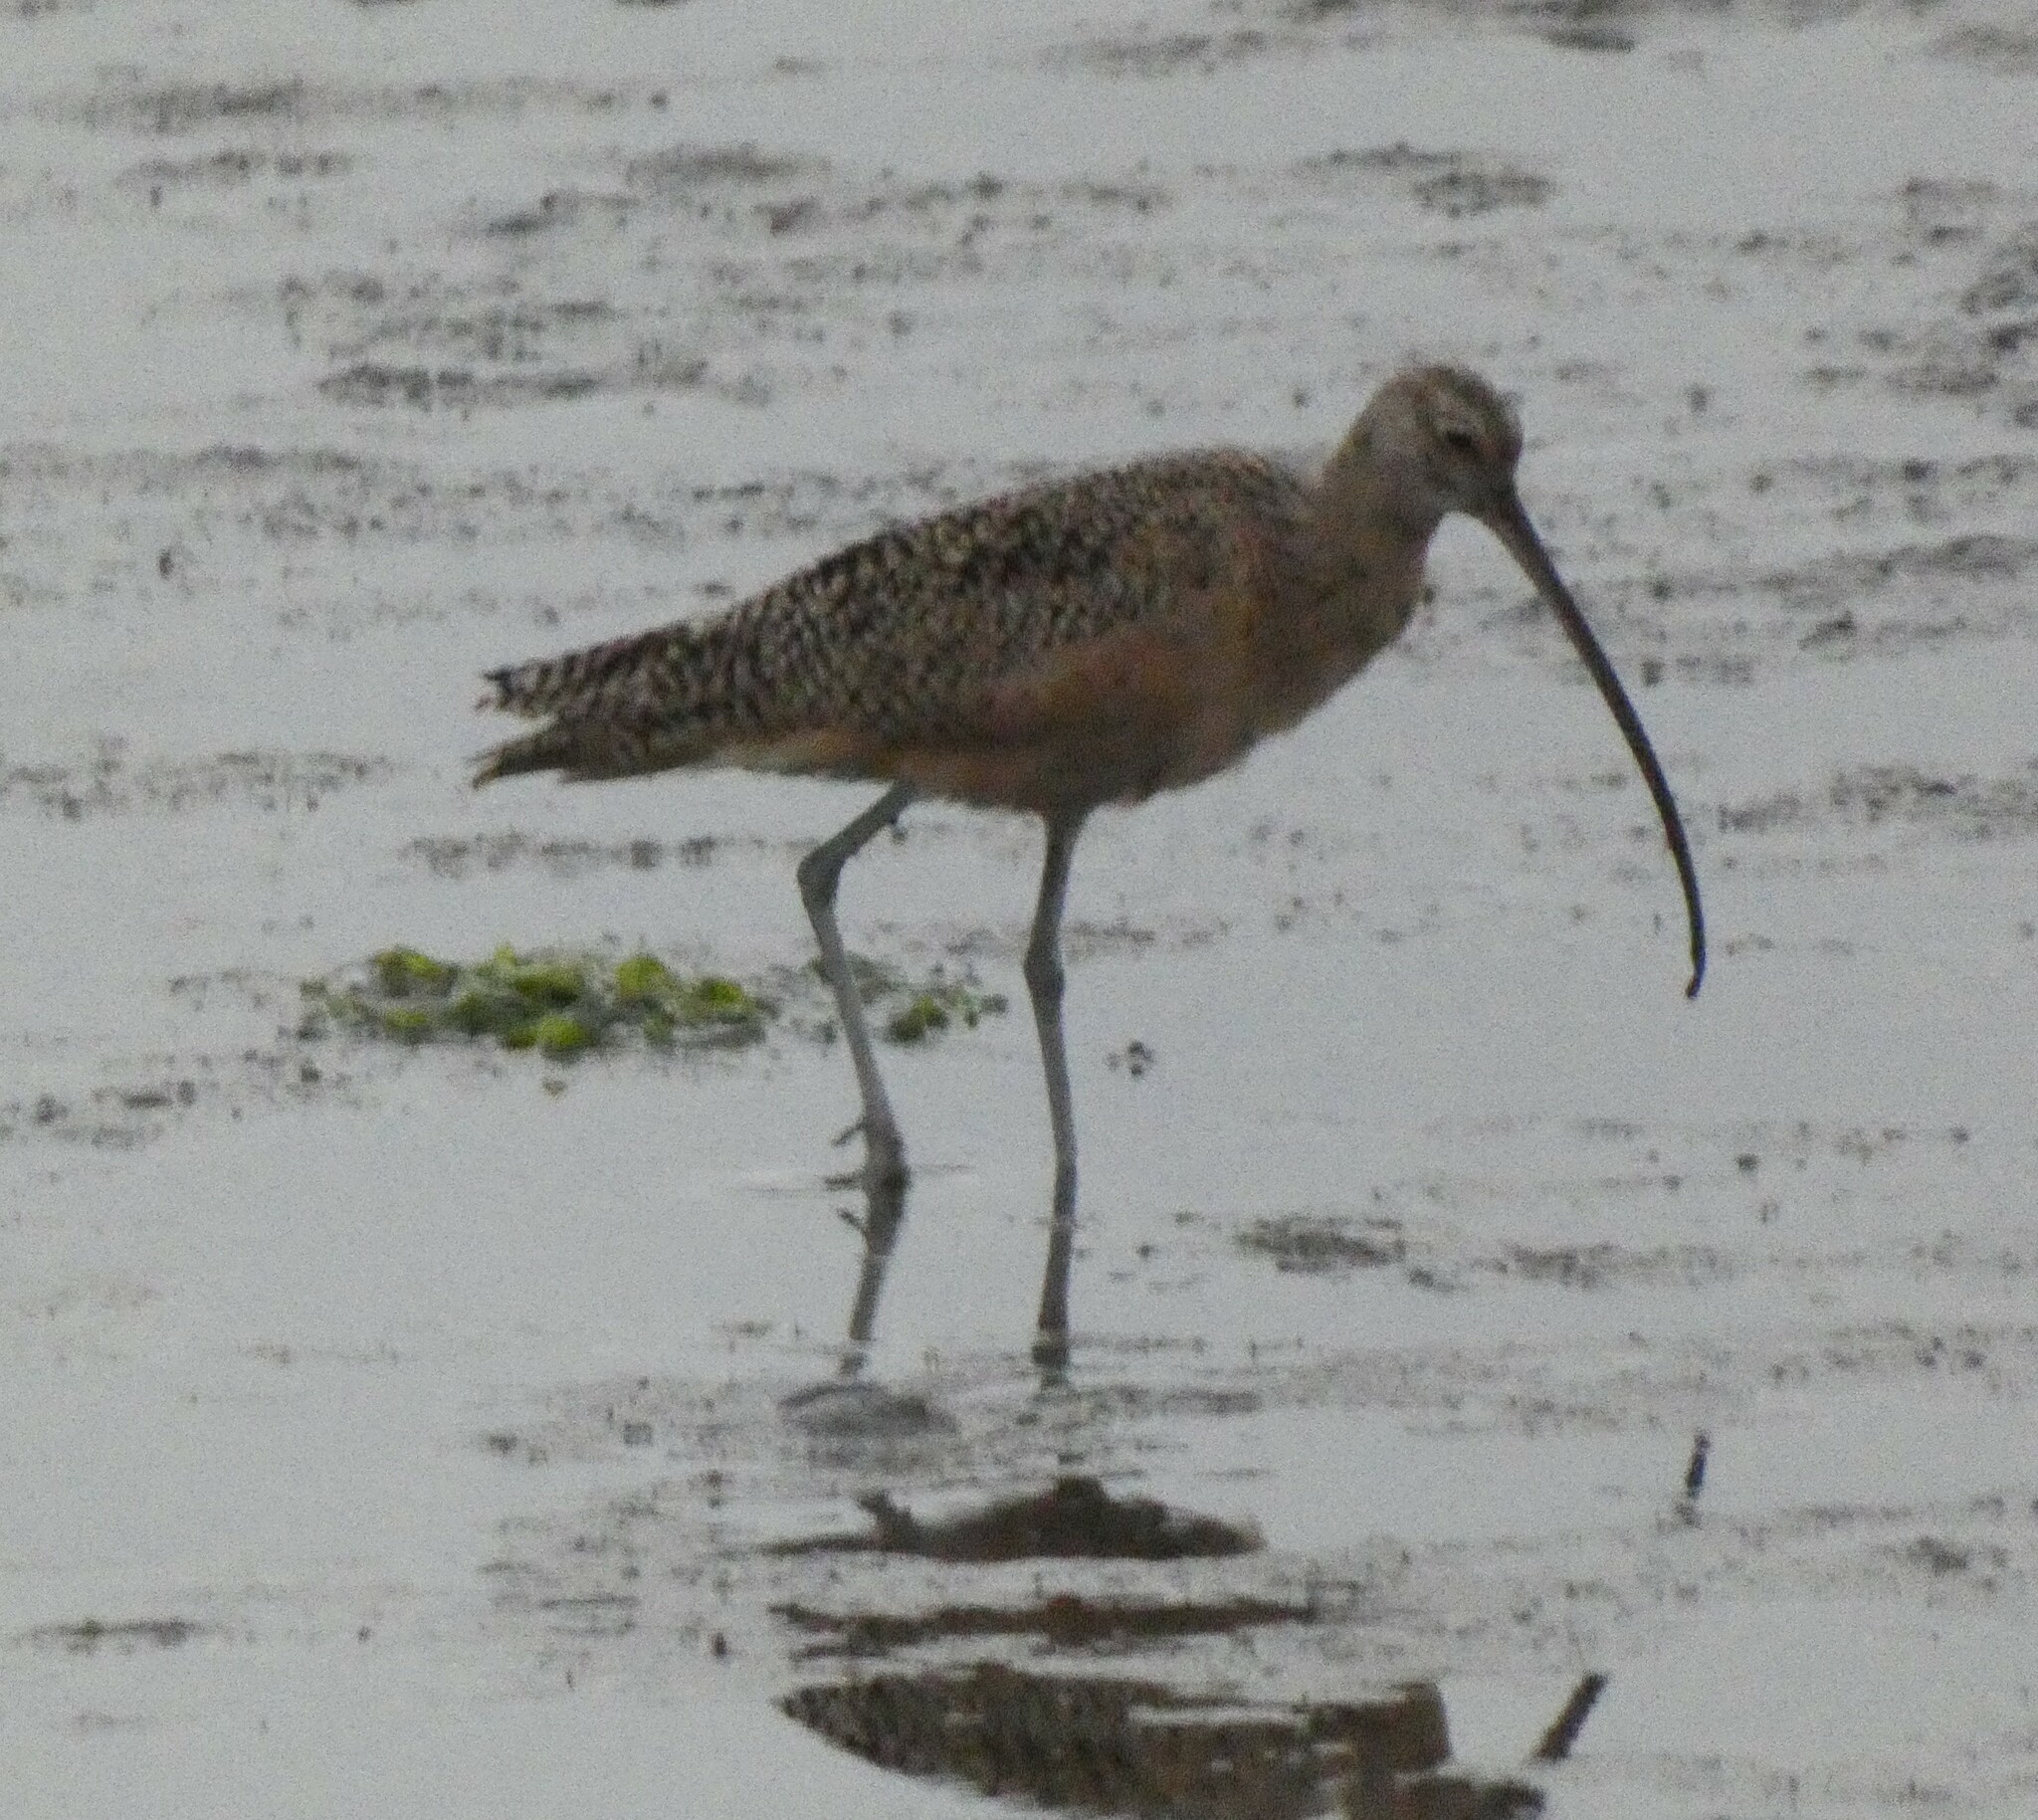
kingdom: Animalia
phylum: Chordata
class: Aves
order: Charadriiformes
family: Scolopacidae
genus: Numenius
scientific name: Numenius americanus
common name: Long-billed curlew
